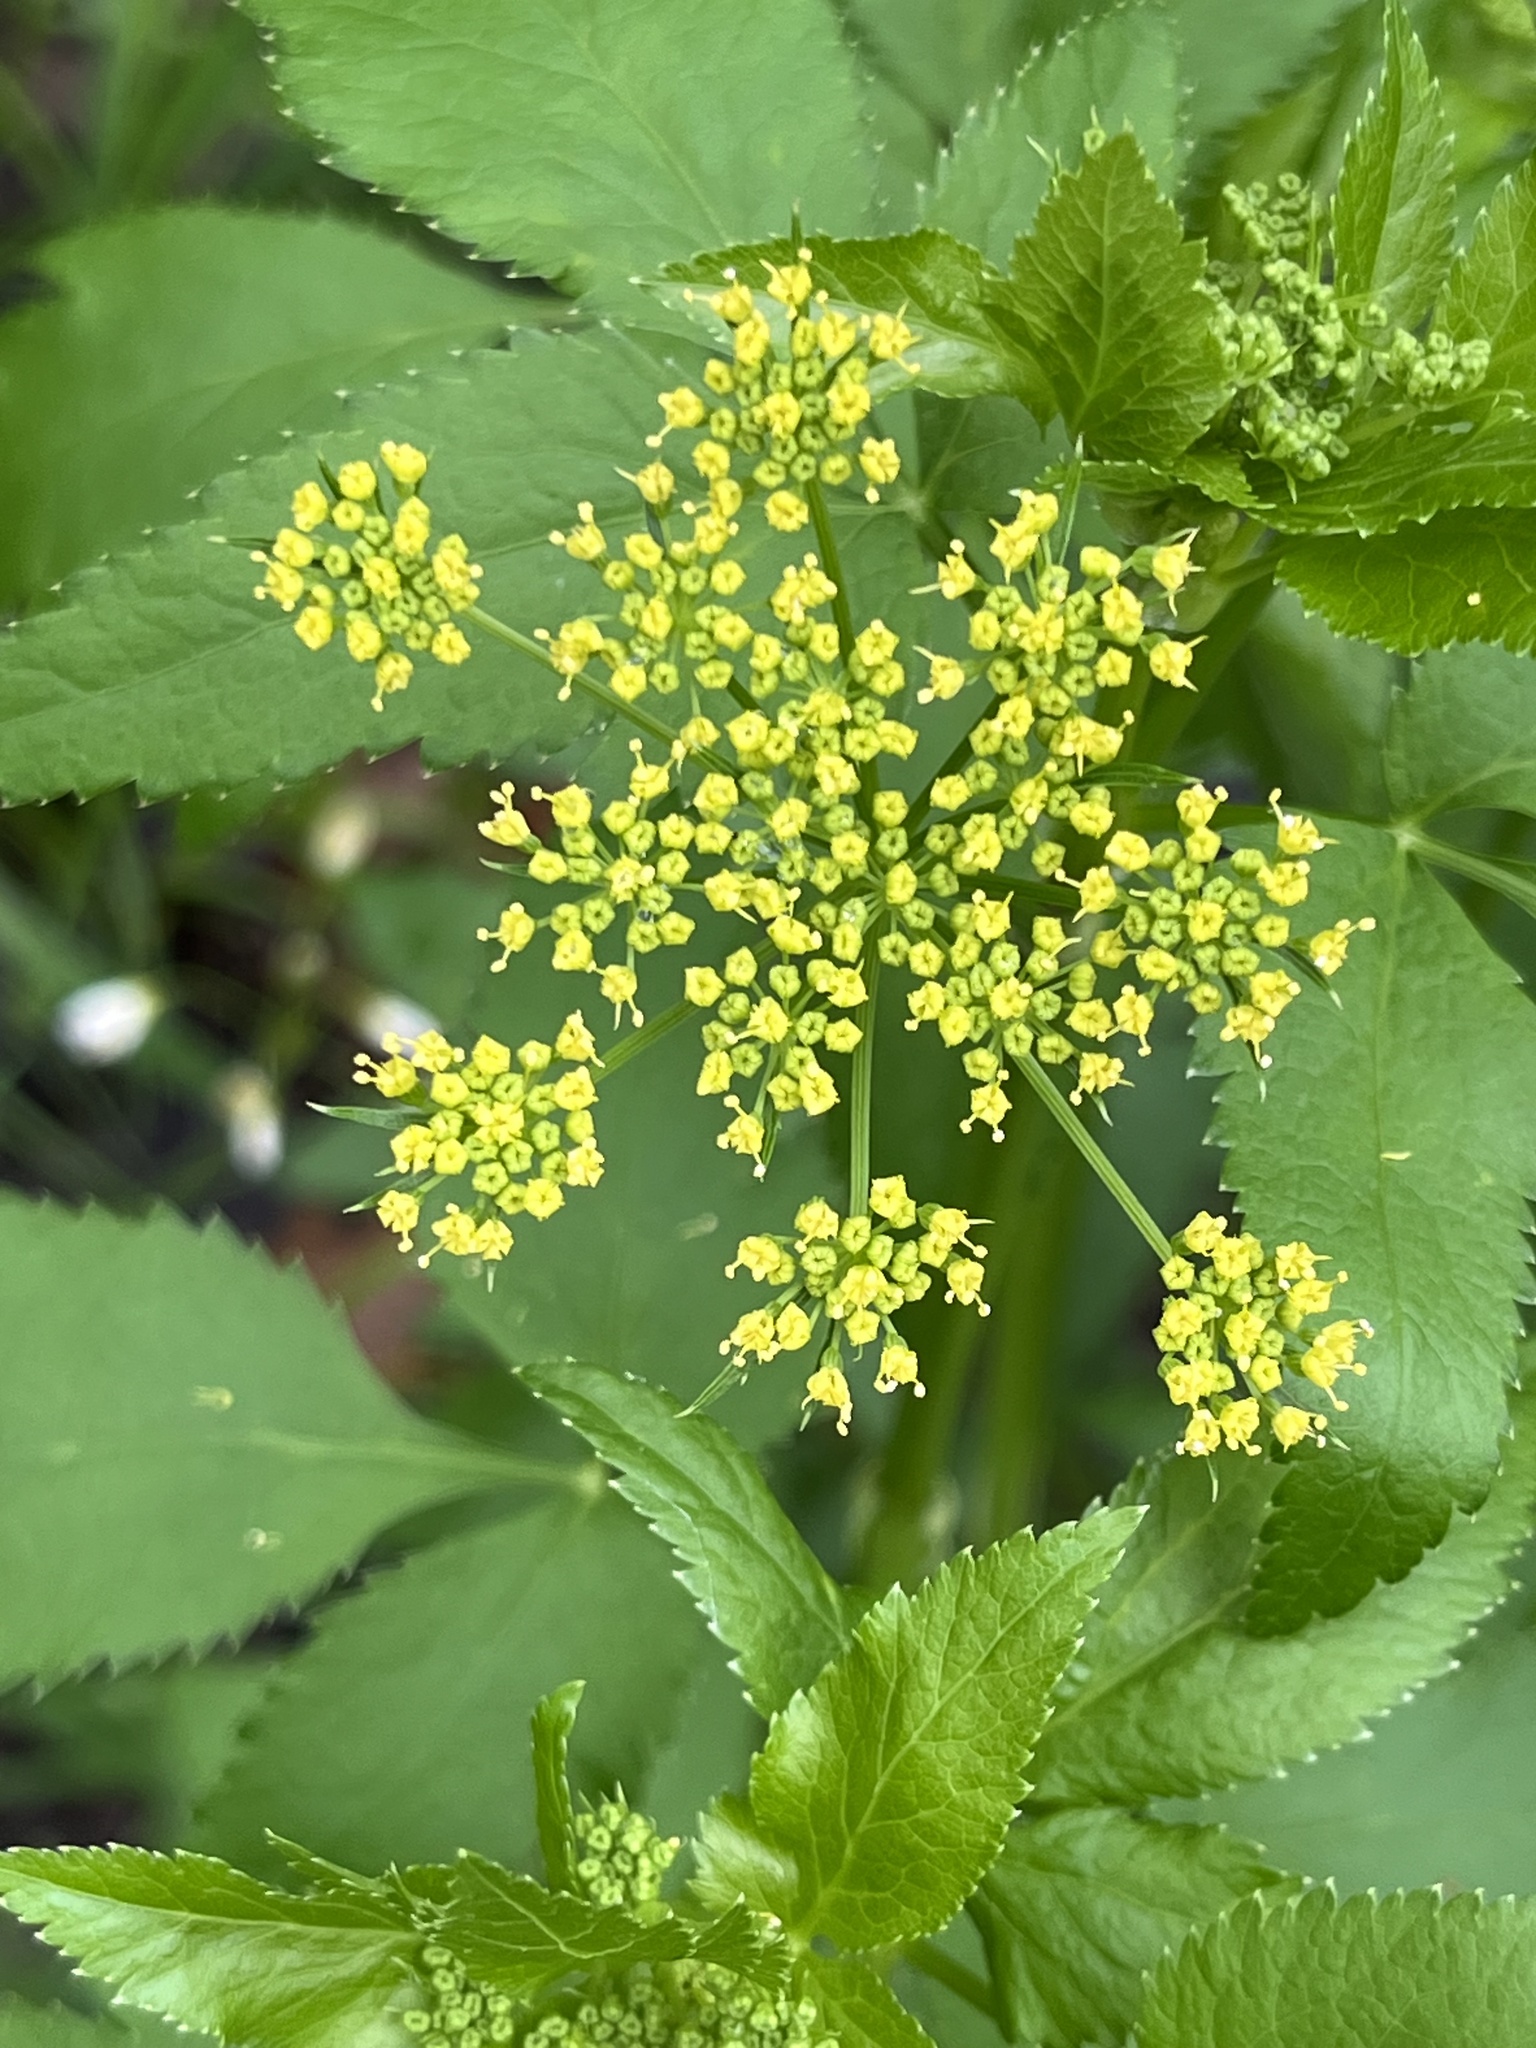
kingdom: Plantae
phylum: Tracheophyta
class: Magnoliopsida
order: Apiales
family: Apiaceae
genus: Zizia
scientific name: Zizia aurea
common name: Golden alexanders
